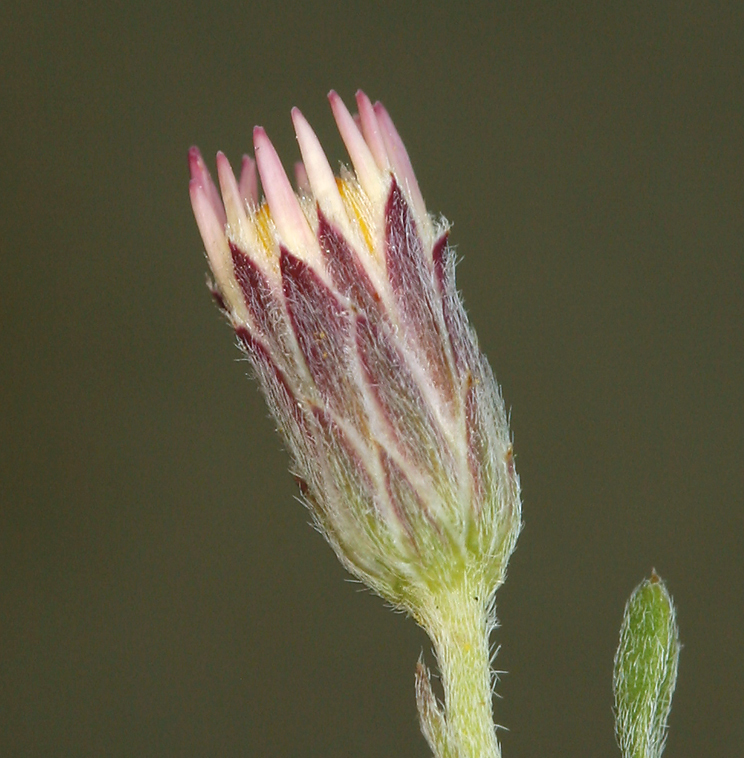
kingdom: Plantae
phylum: Tracheophyta
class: Magnoliopsida
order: Asterales
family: Asteraceae
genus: Chaetopappa
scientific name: Chaetopappa ericoides
